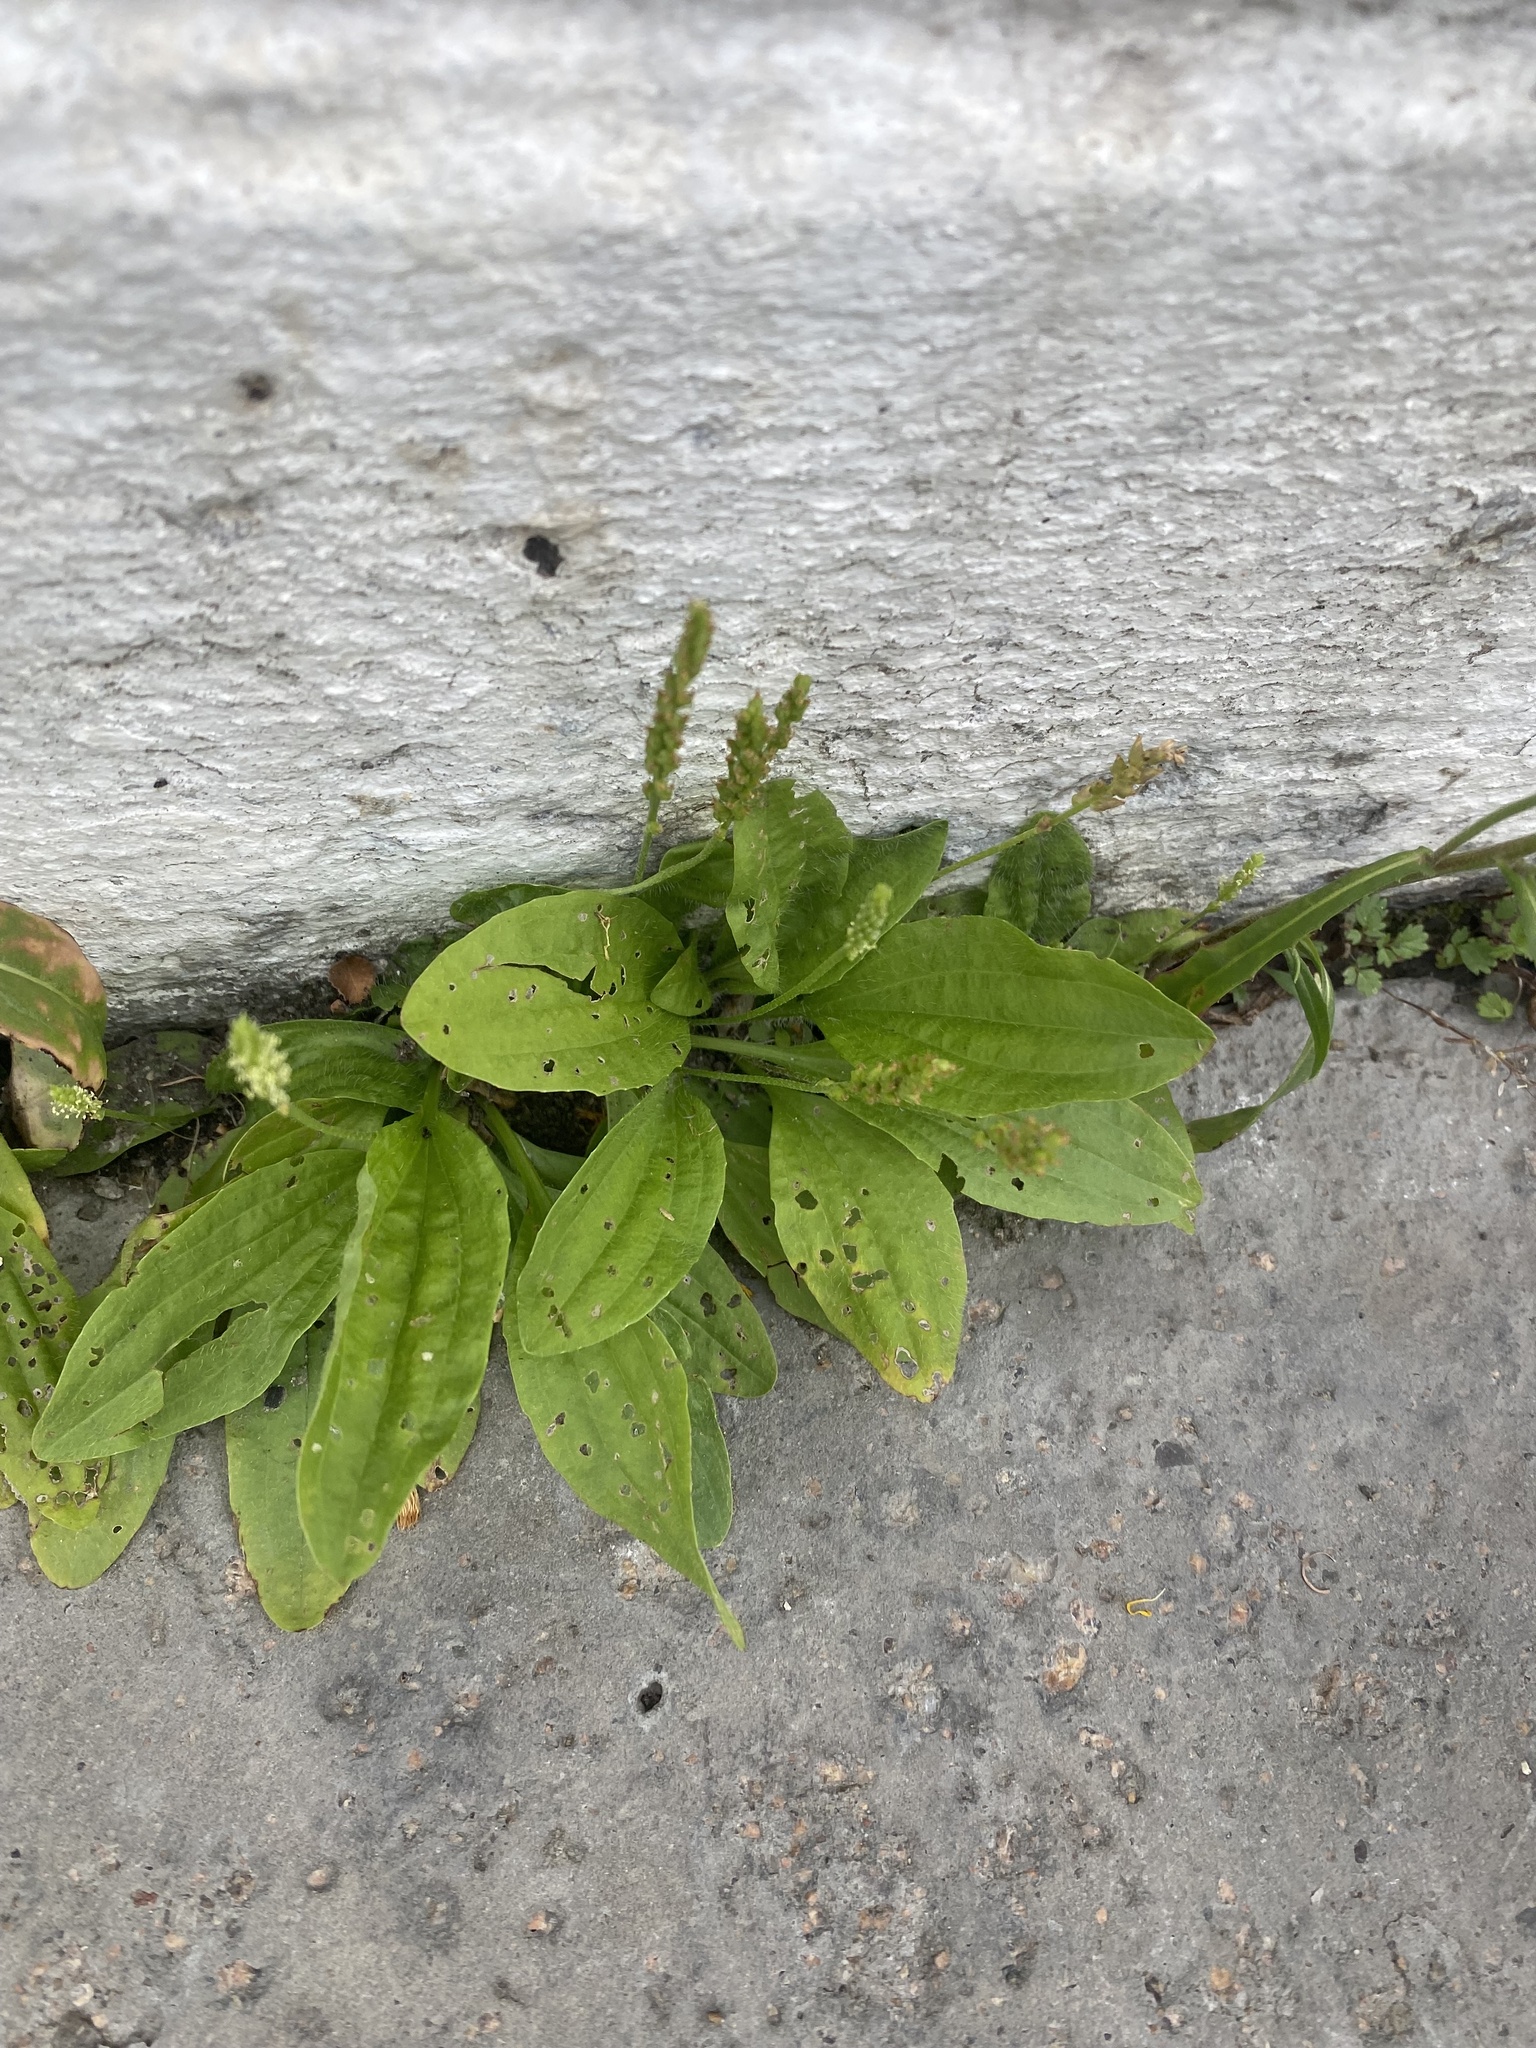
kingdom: Plantae
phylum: Tracheophyta
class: Magnoliopsida
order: Lamiales
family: Plantaginaceae
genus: Plantago
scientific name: Plantago depressa
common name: Depressed plantain
